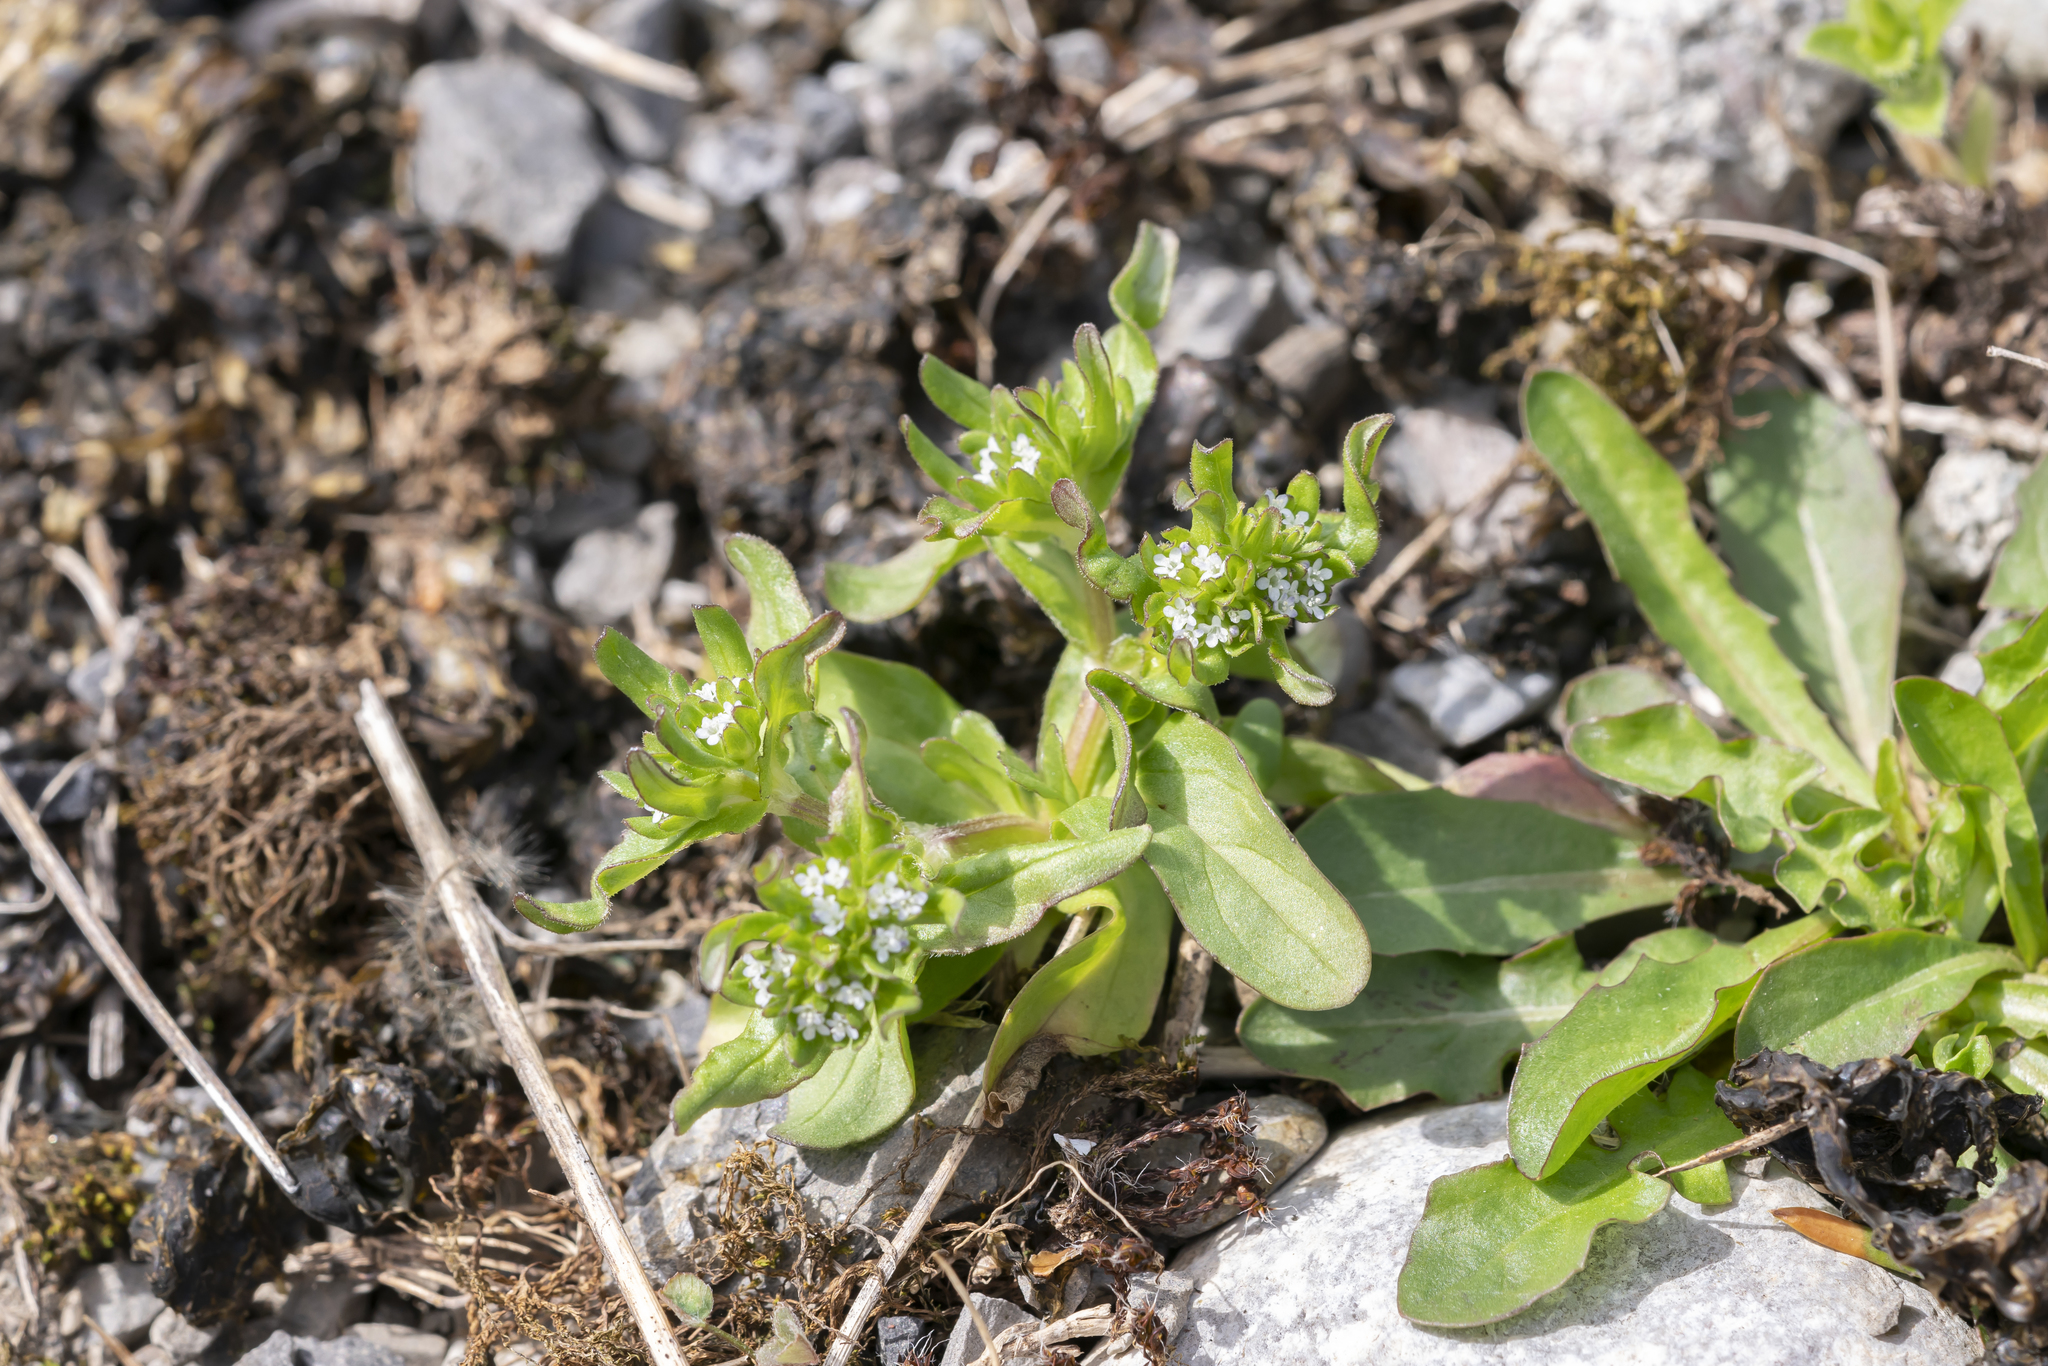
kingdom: Plantae
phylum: Tracheophyta
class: Magnoliopsida
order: Dipsacales
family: Caprifoliaceae
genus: Valerianella
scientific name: Valerianella locusta
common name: Common cornsalad
